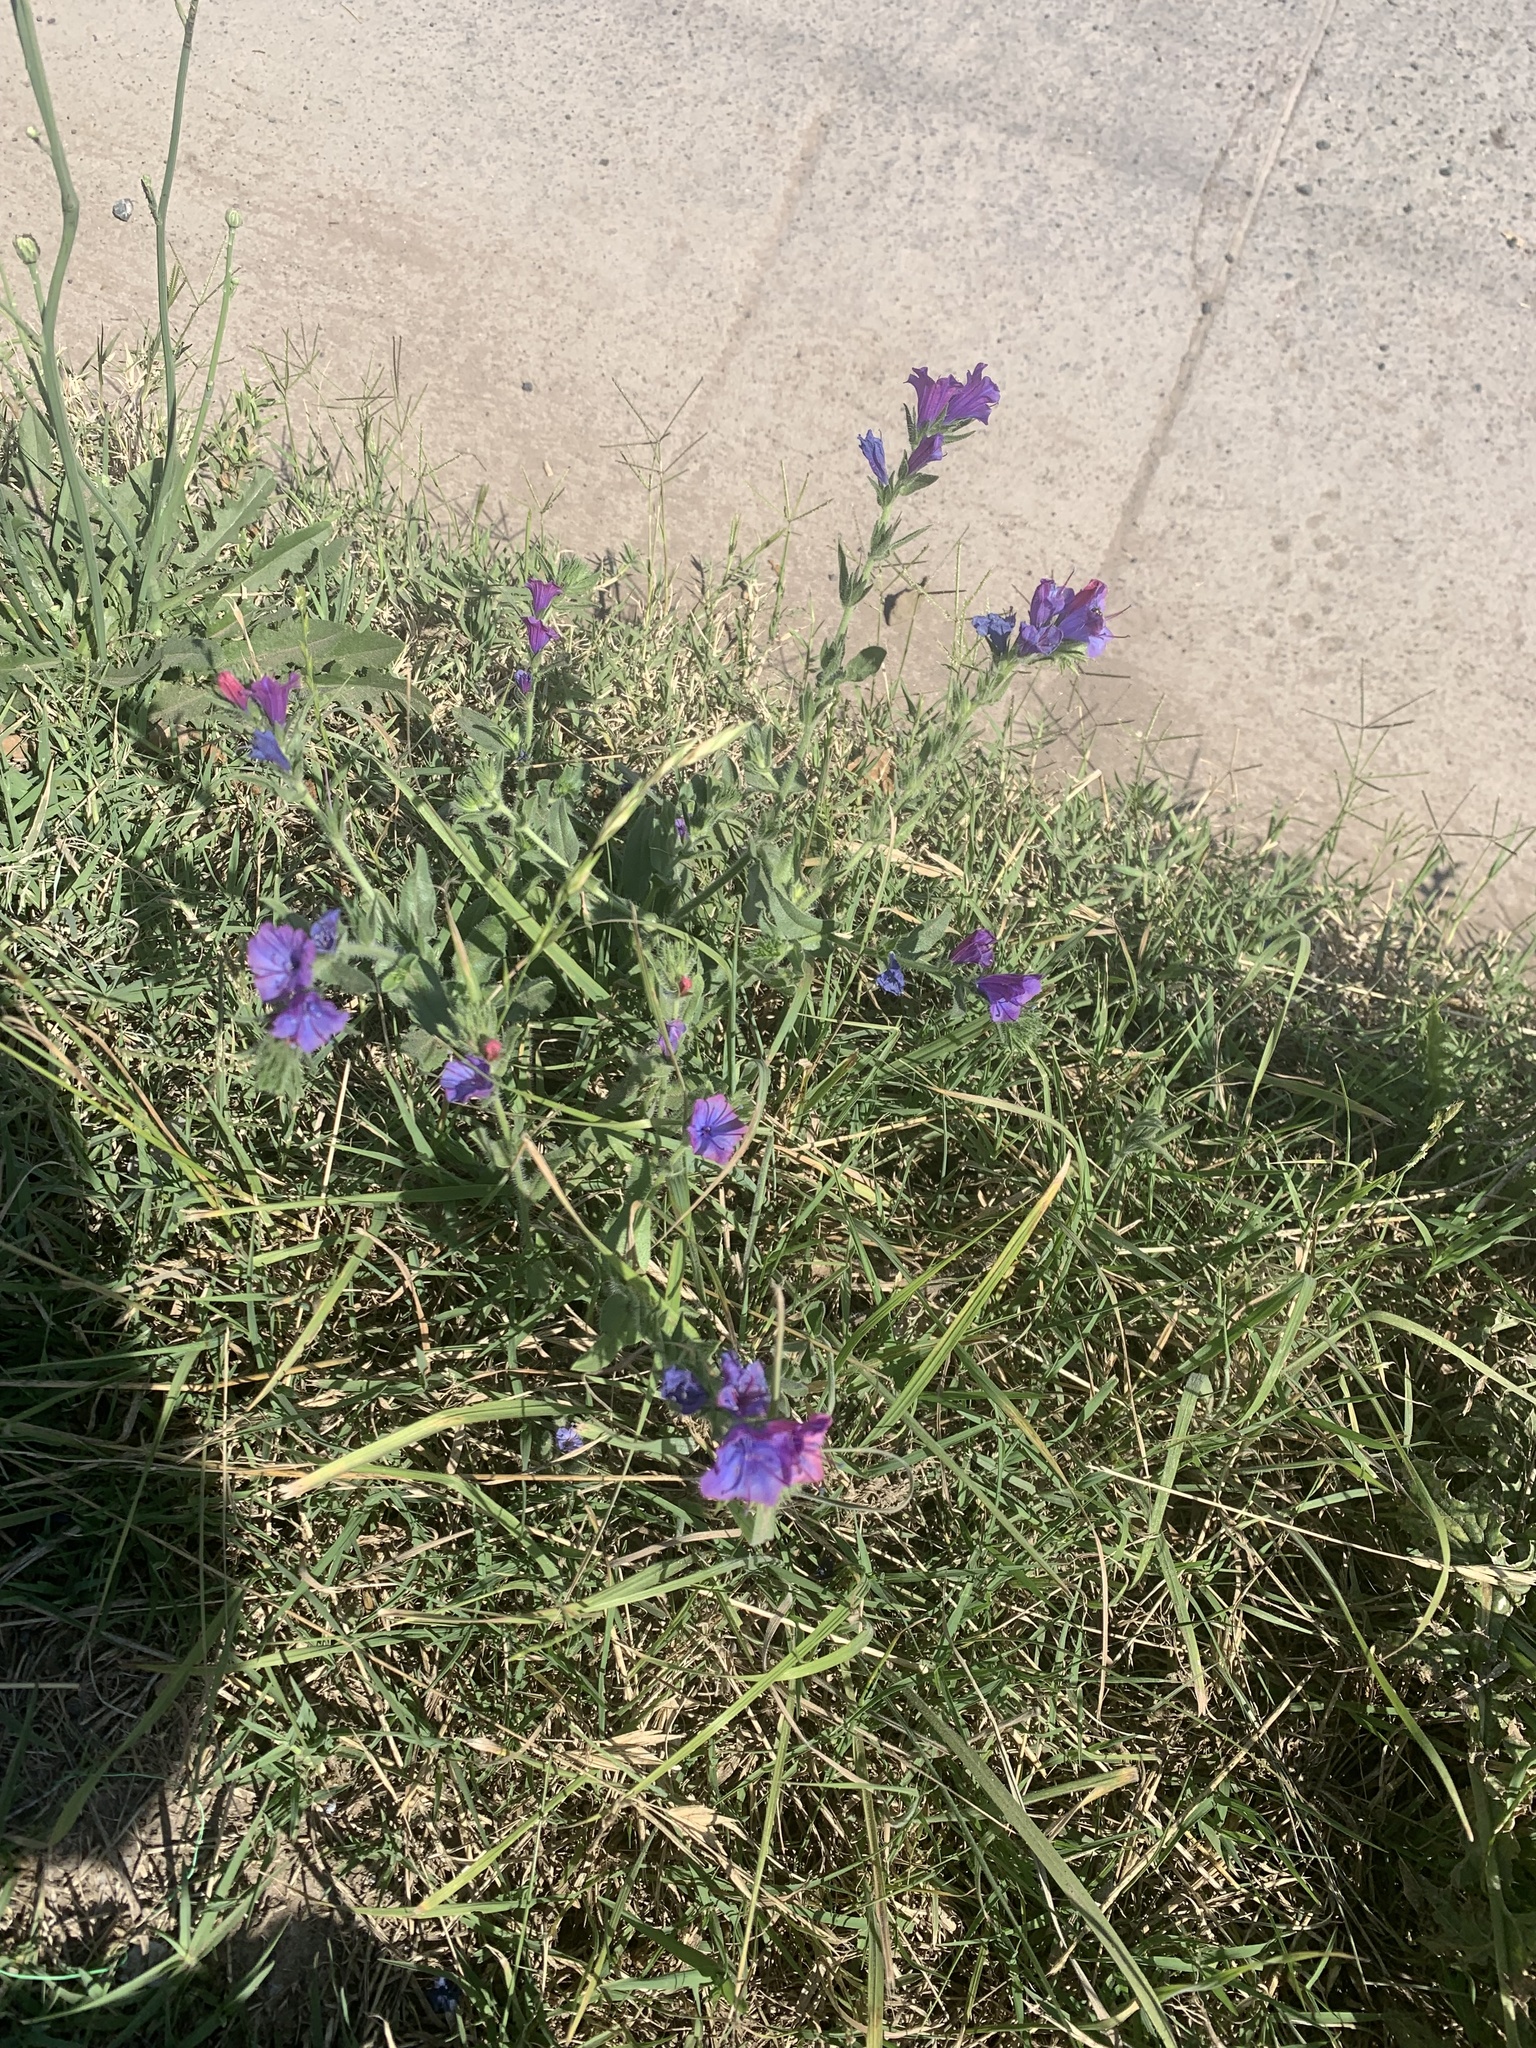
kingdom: Plantae
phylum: Tracheophyta
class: Magnoliopsida
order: Boraginales
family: Boraginaceae
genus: Echium
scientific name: Echium plantagineum
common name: Purple viper's-bugloss
